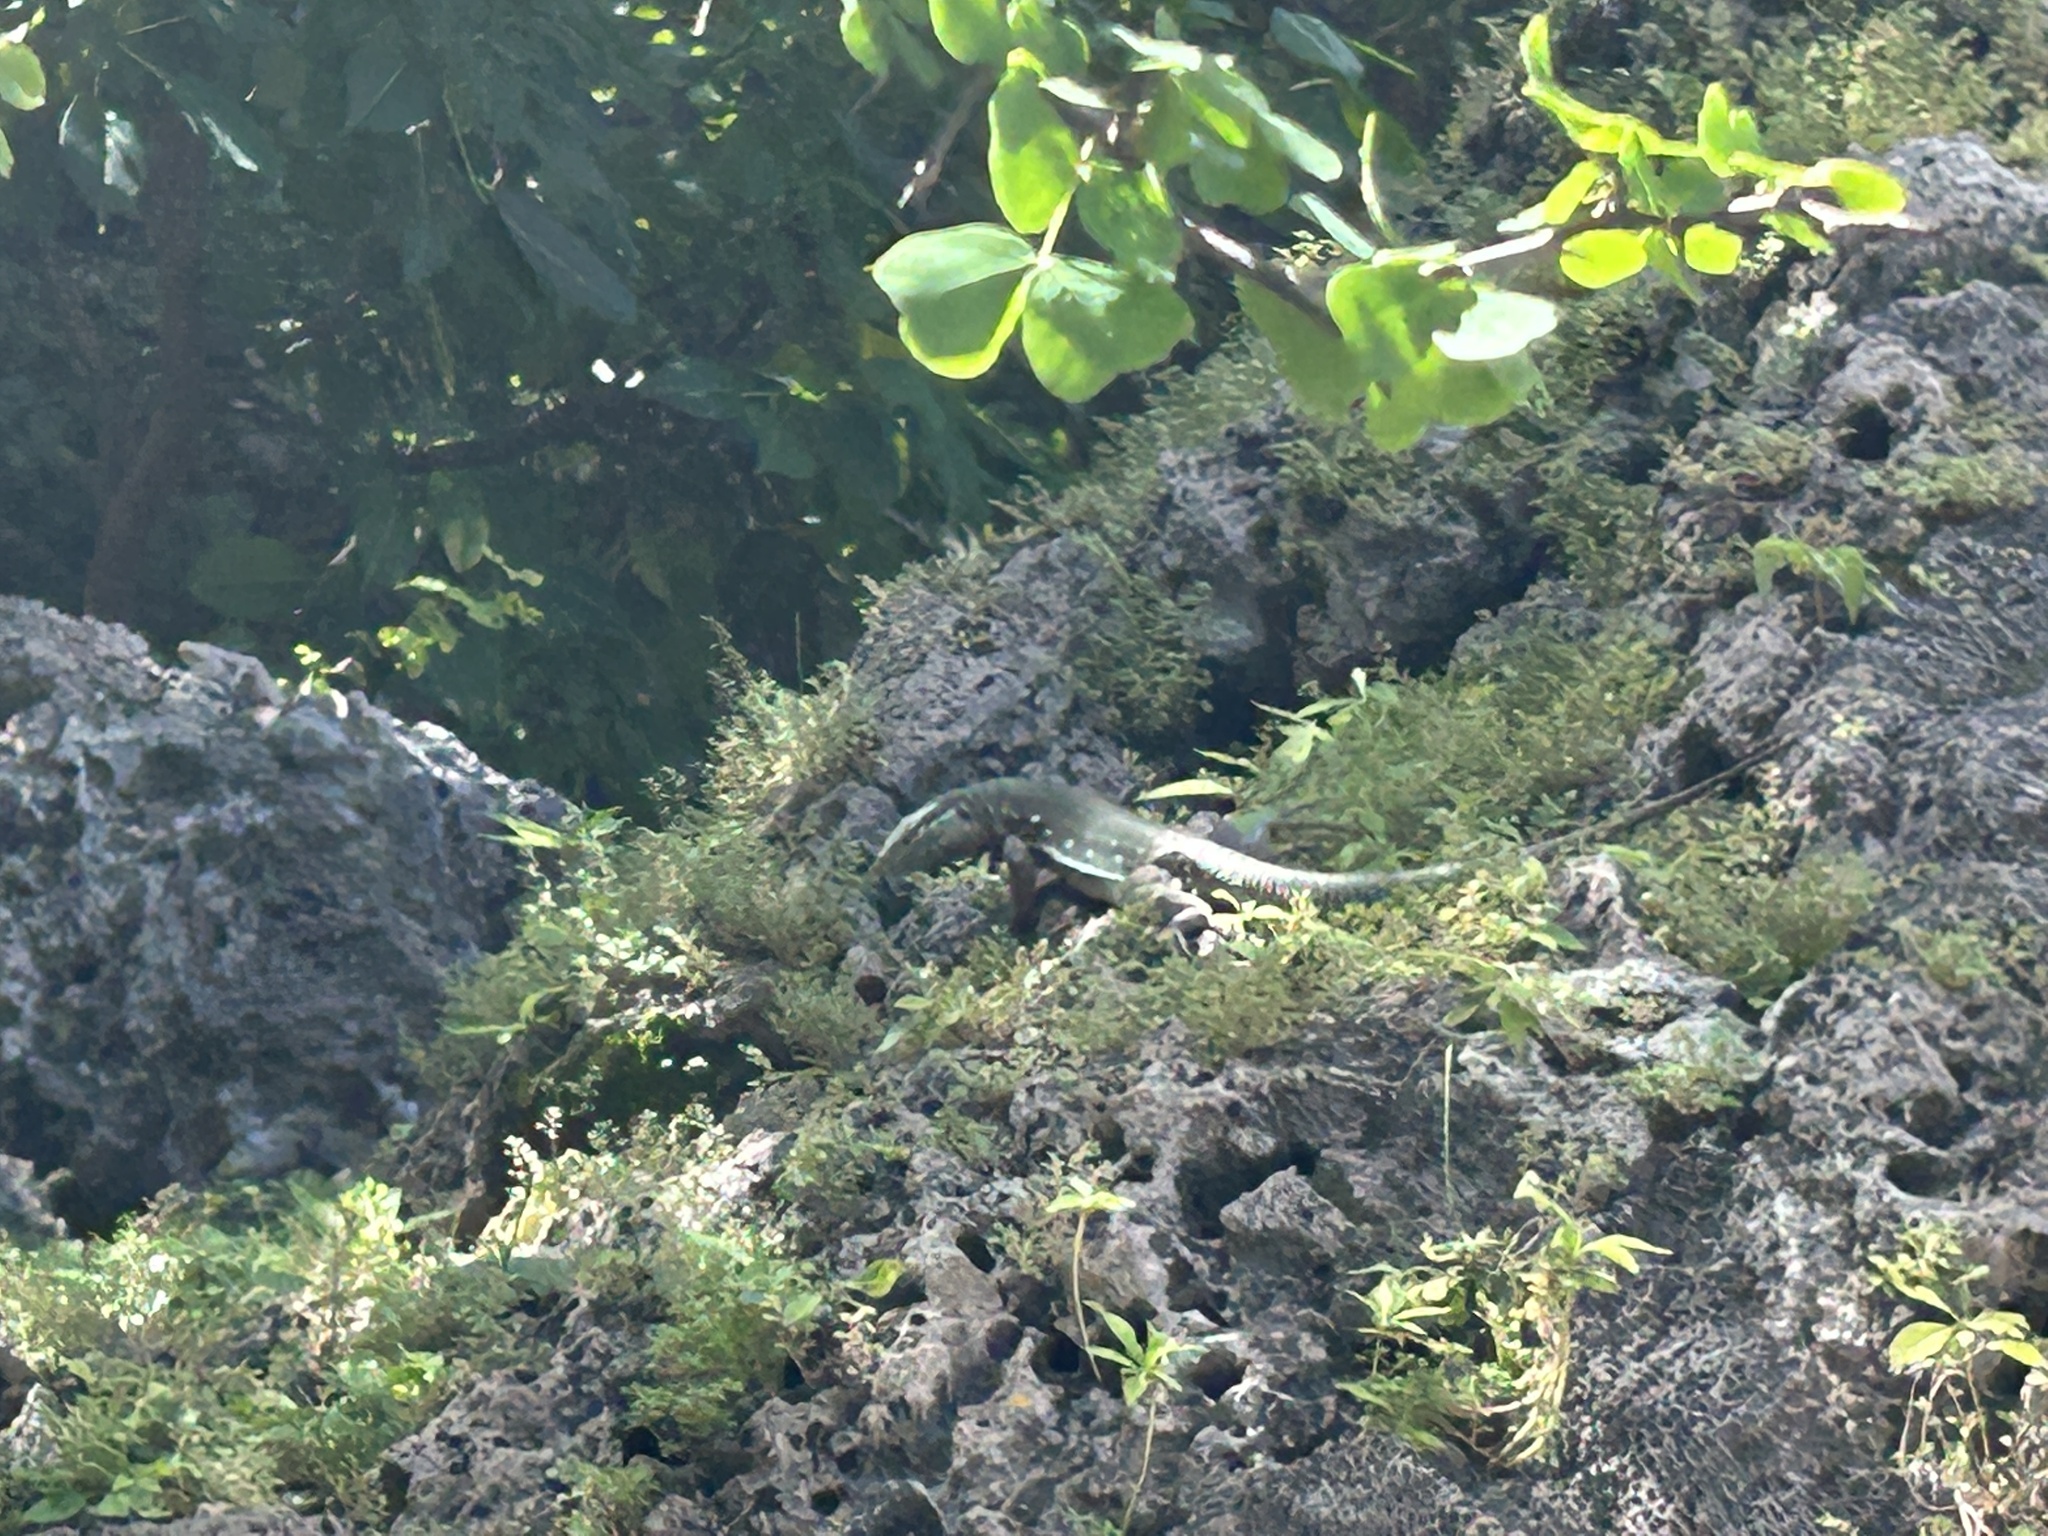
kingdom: Animalia
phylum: Chordata
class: Squamata
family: Teiidae
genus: Cnemidophorus
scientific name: Cnemidophorus murinus
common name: Laurent's whiptail
